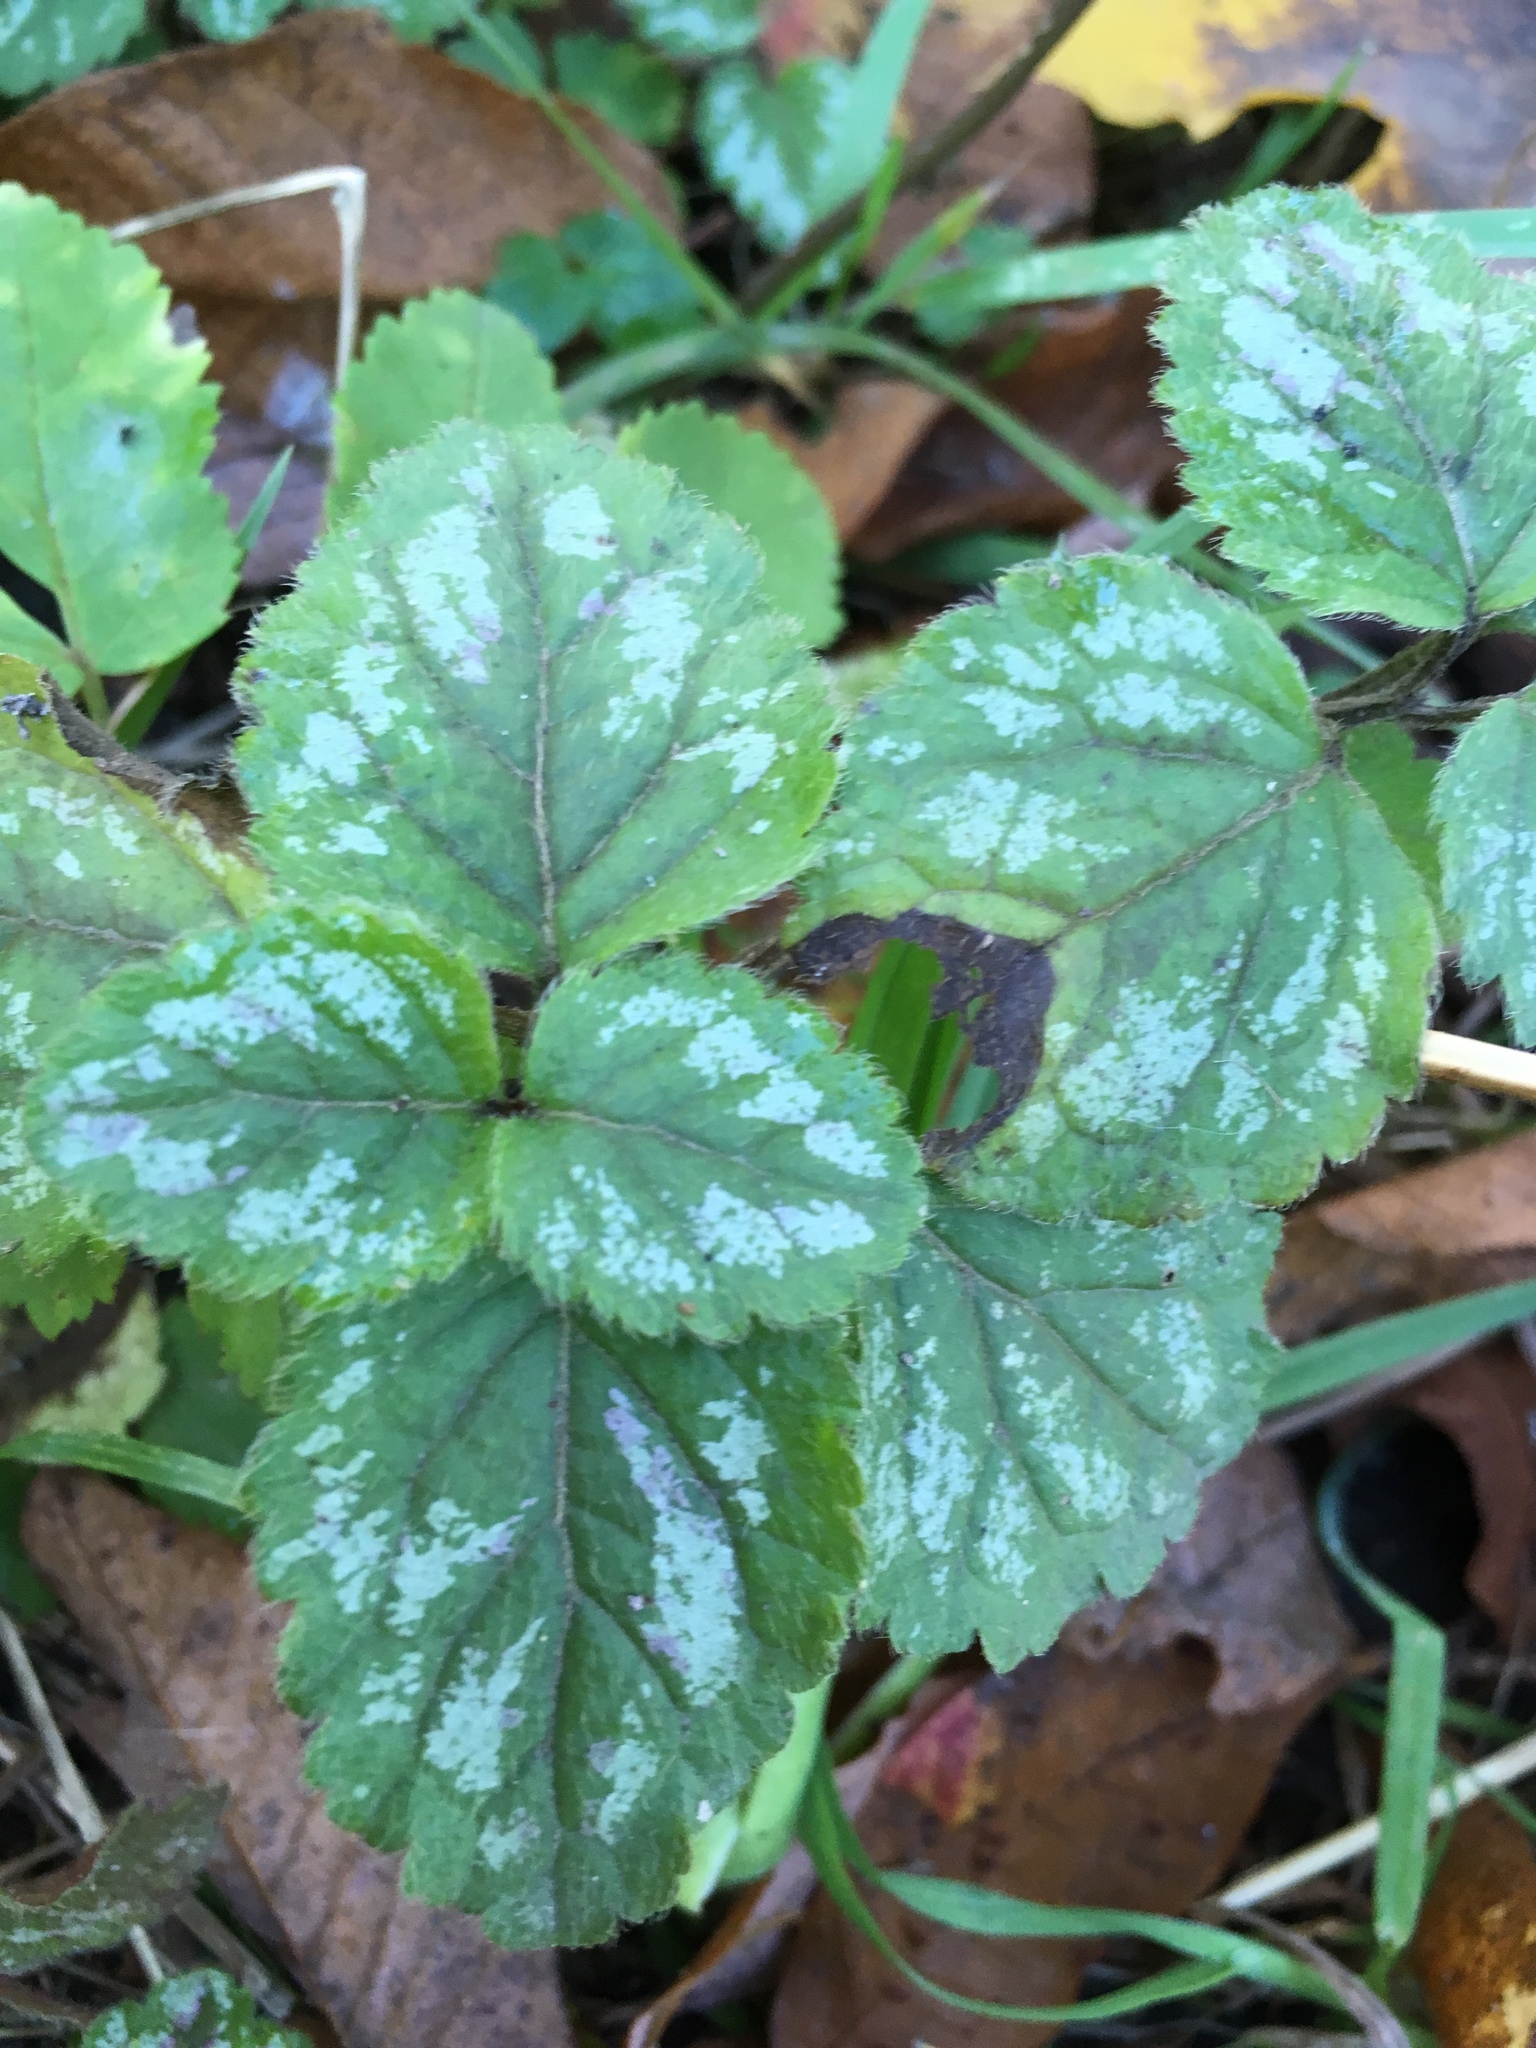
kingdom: Plantae
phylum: Tracheophyta
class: Magnoliopsida
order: Lamiales
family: Lamiaceae
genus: Lamium
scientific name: Lamium galeobdolon
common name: Yellow archangel
